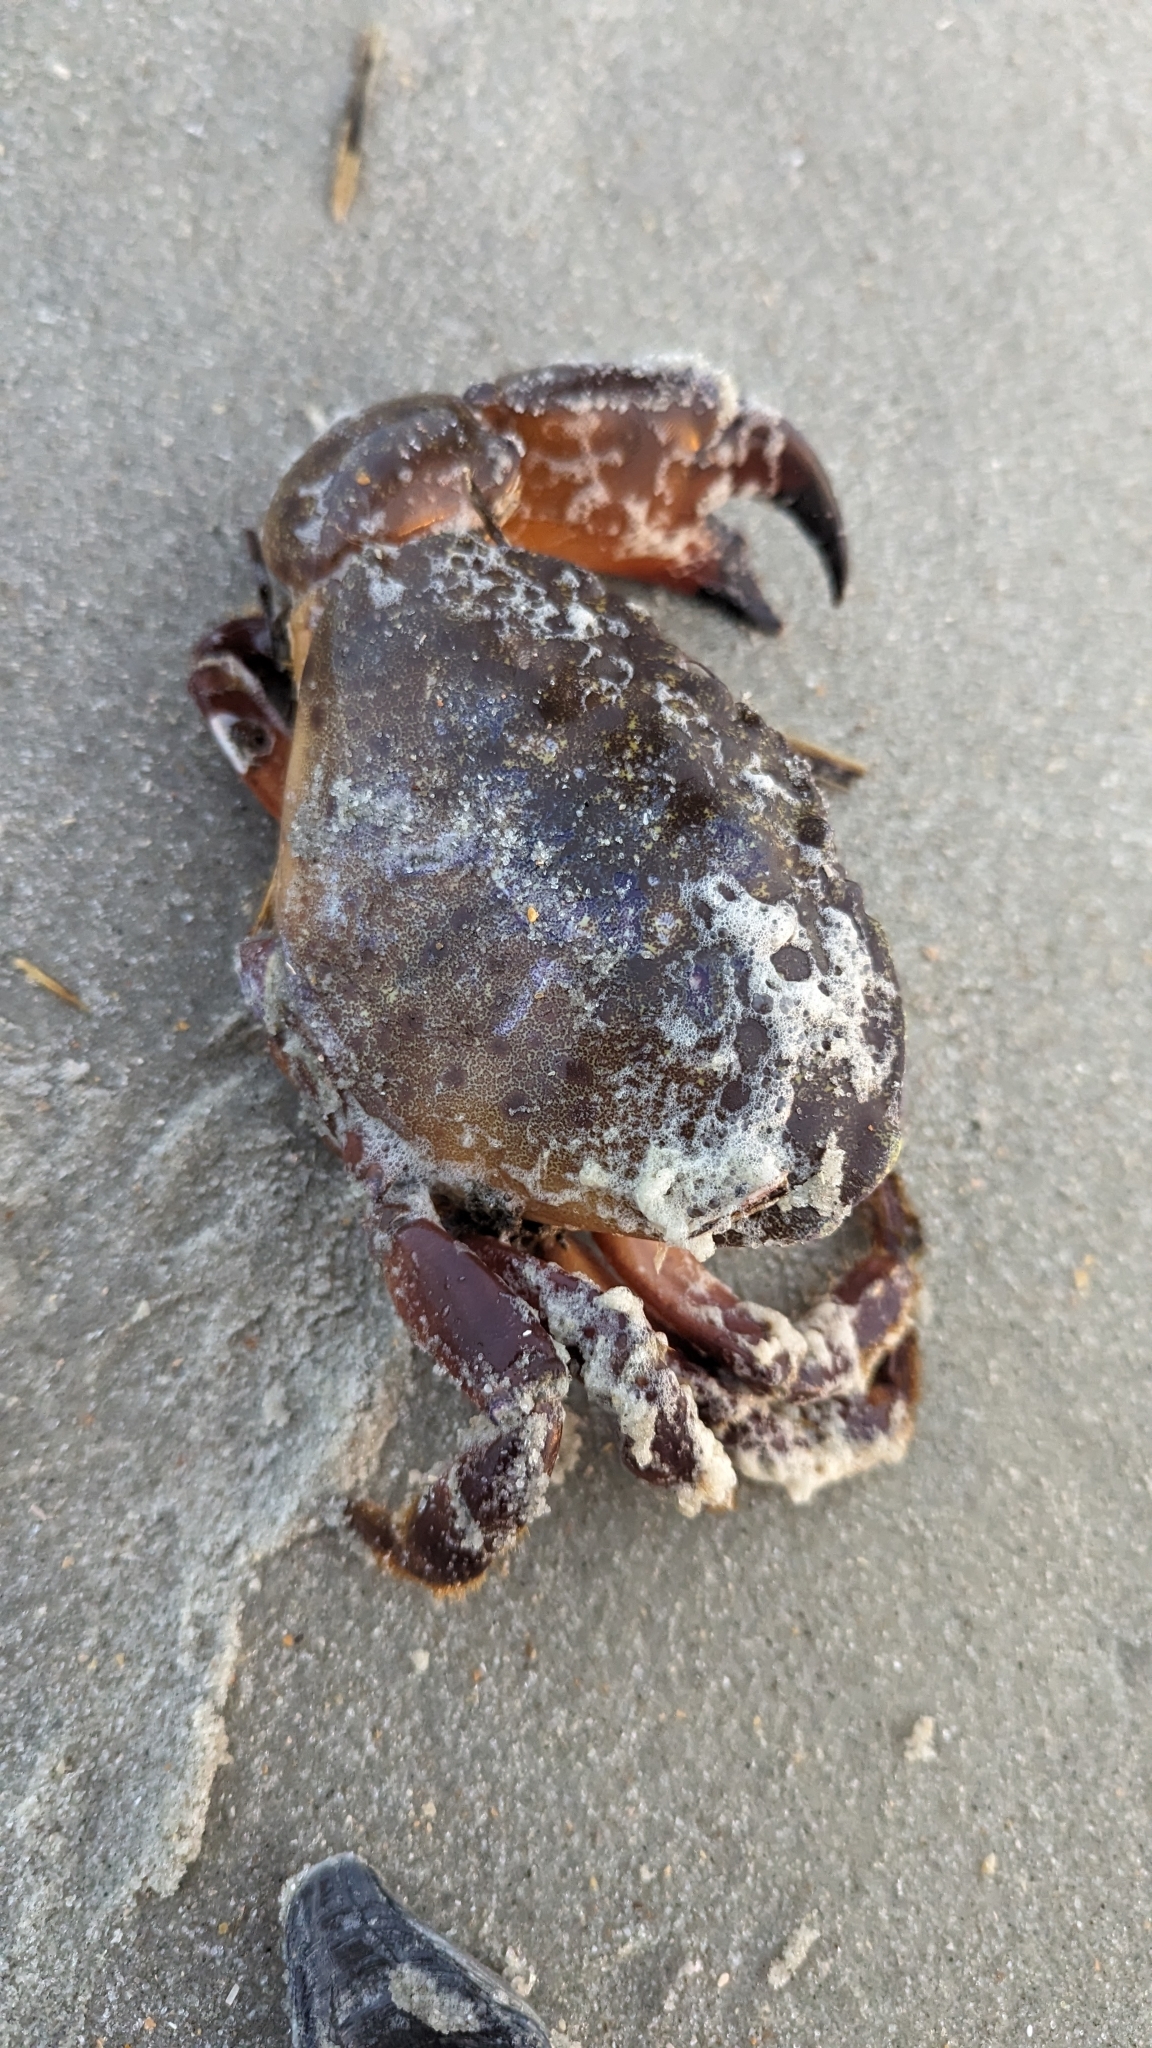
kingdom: Animalia
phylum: Arthropoda
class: Malacostraca
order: Decapoda
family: Menippidae
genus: Menippe
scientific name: Menippe mercenaria
